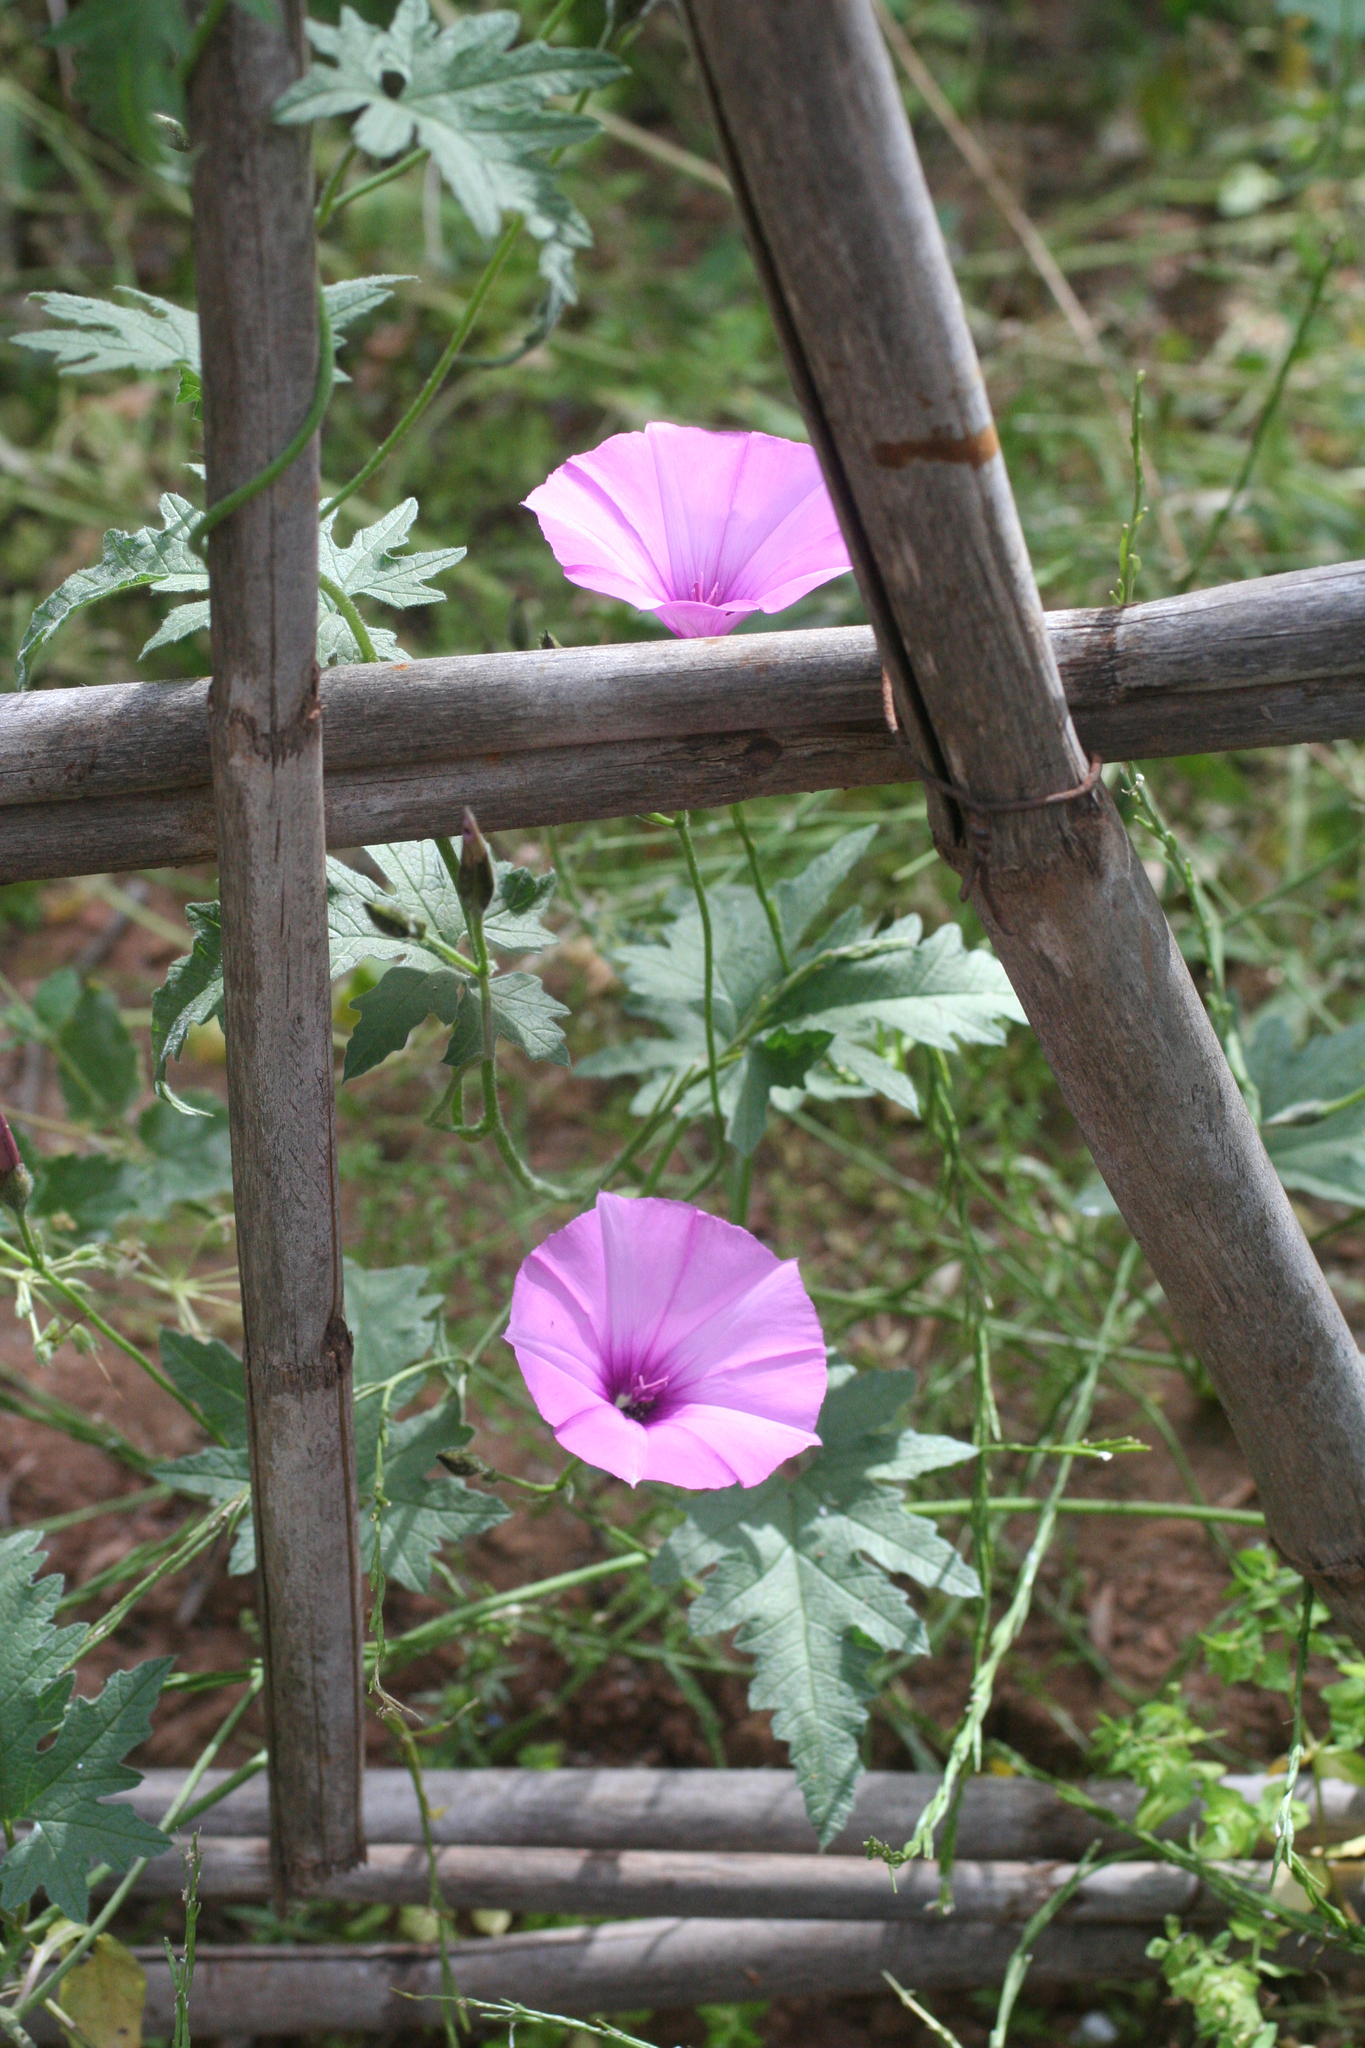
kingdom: Plantae
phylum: Tracheophyta
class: Magnoliopsida
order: Solanales
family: Convolvulaceae
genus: Convolvulus
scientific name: Convolvulus althaeoides
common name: Mallow bindweed
